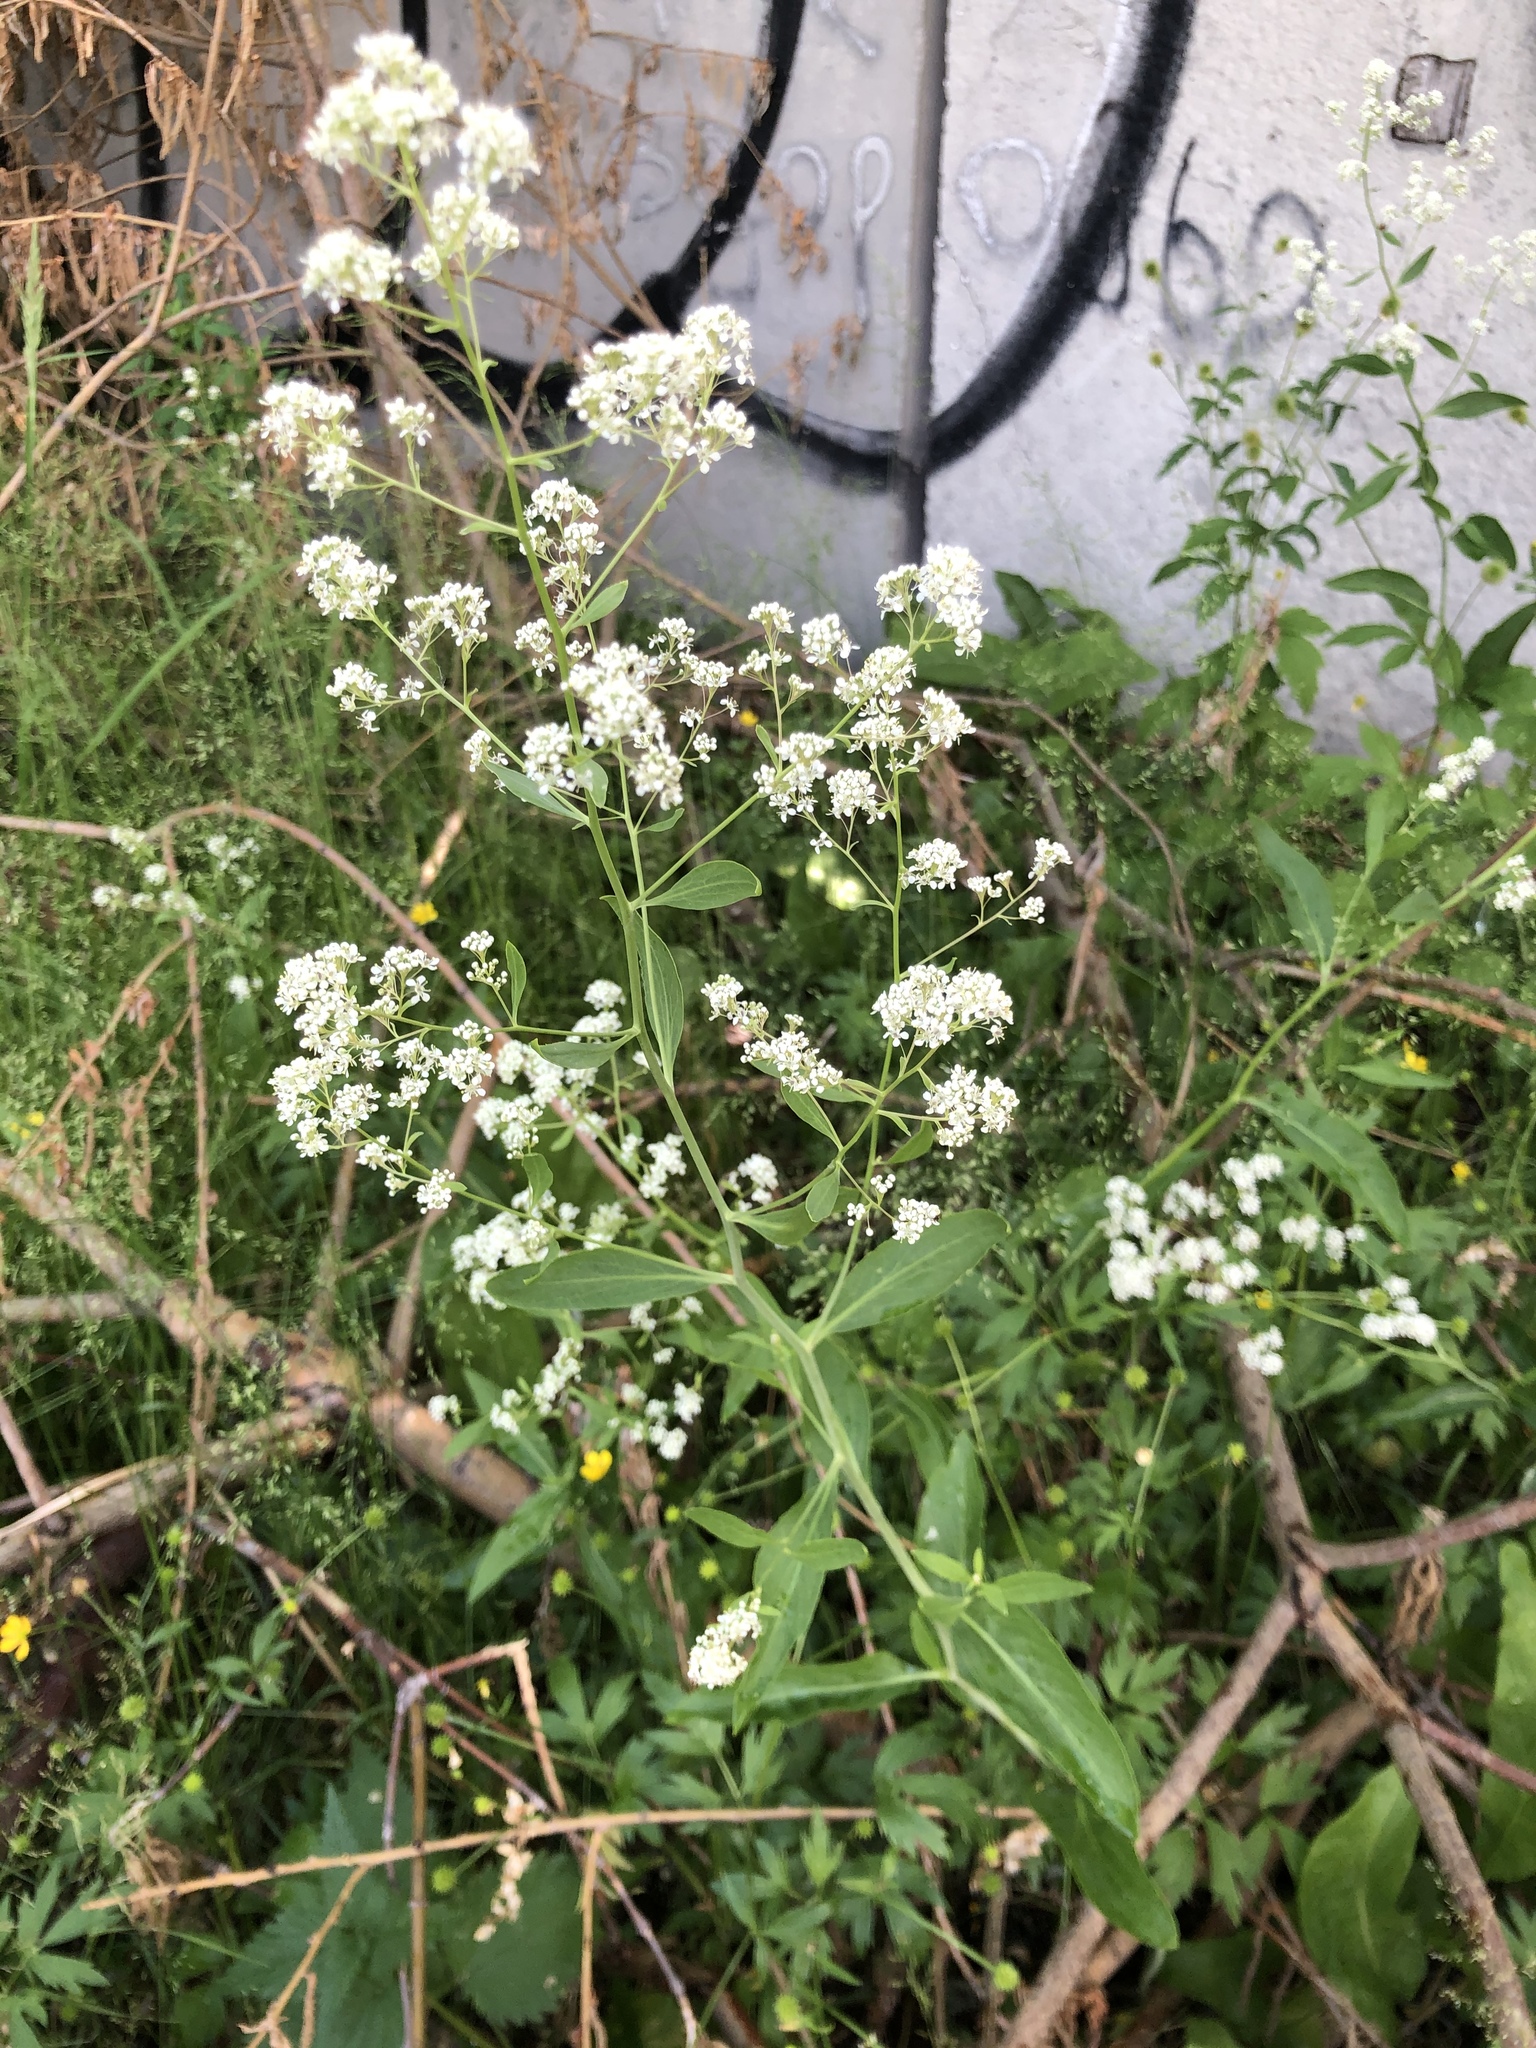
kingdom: Plantae
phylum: Tracheophyta
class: Magnoliopsida
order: Brassicales
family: Brassicaceae
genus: Lepidium
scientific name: Lepidium latifolium
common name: Dittander
